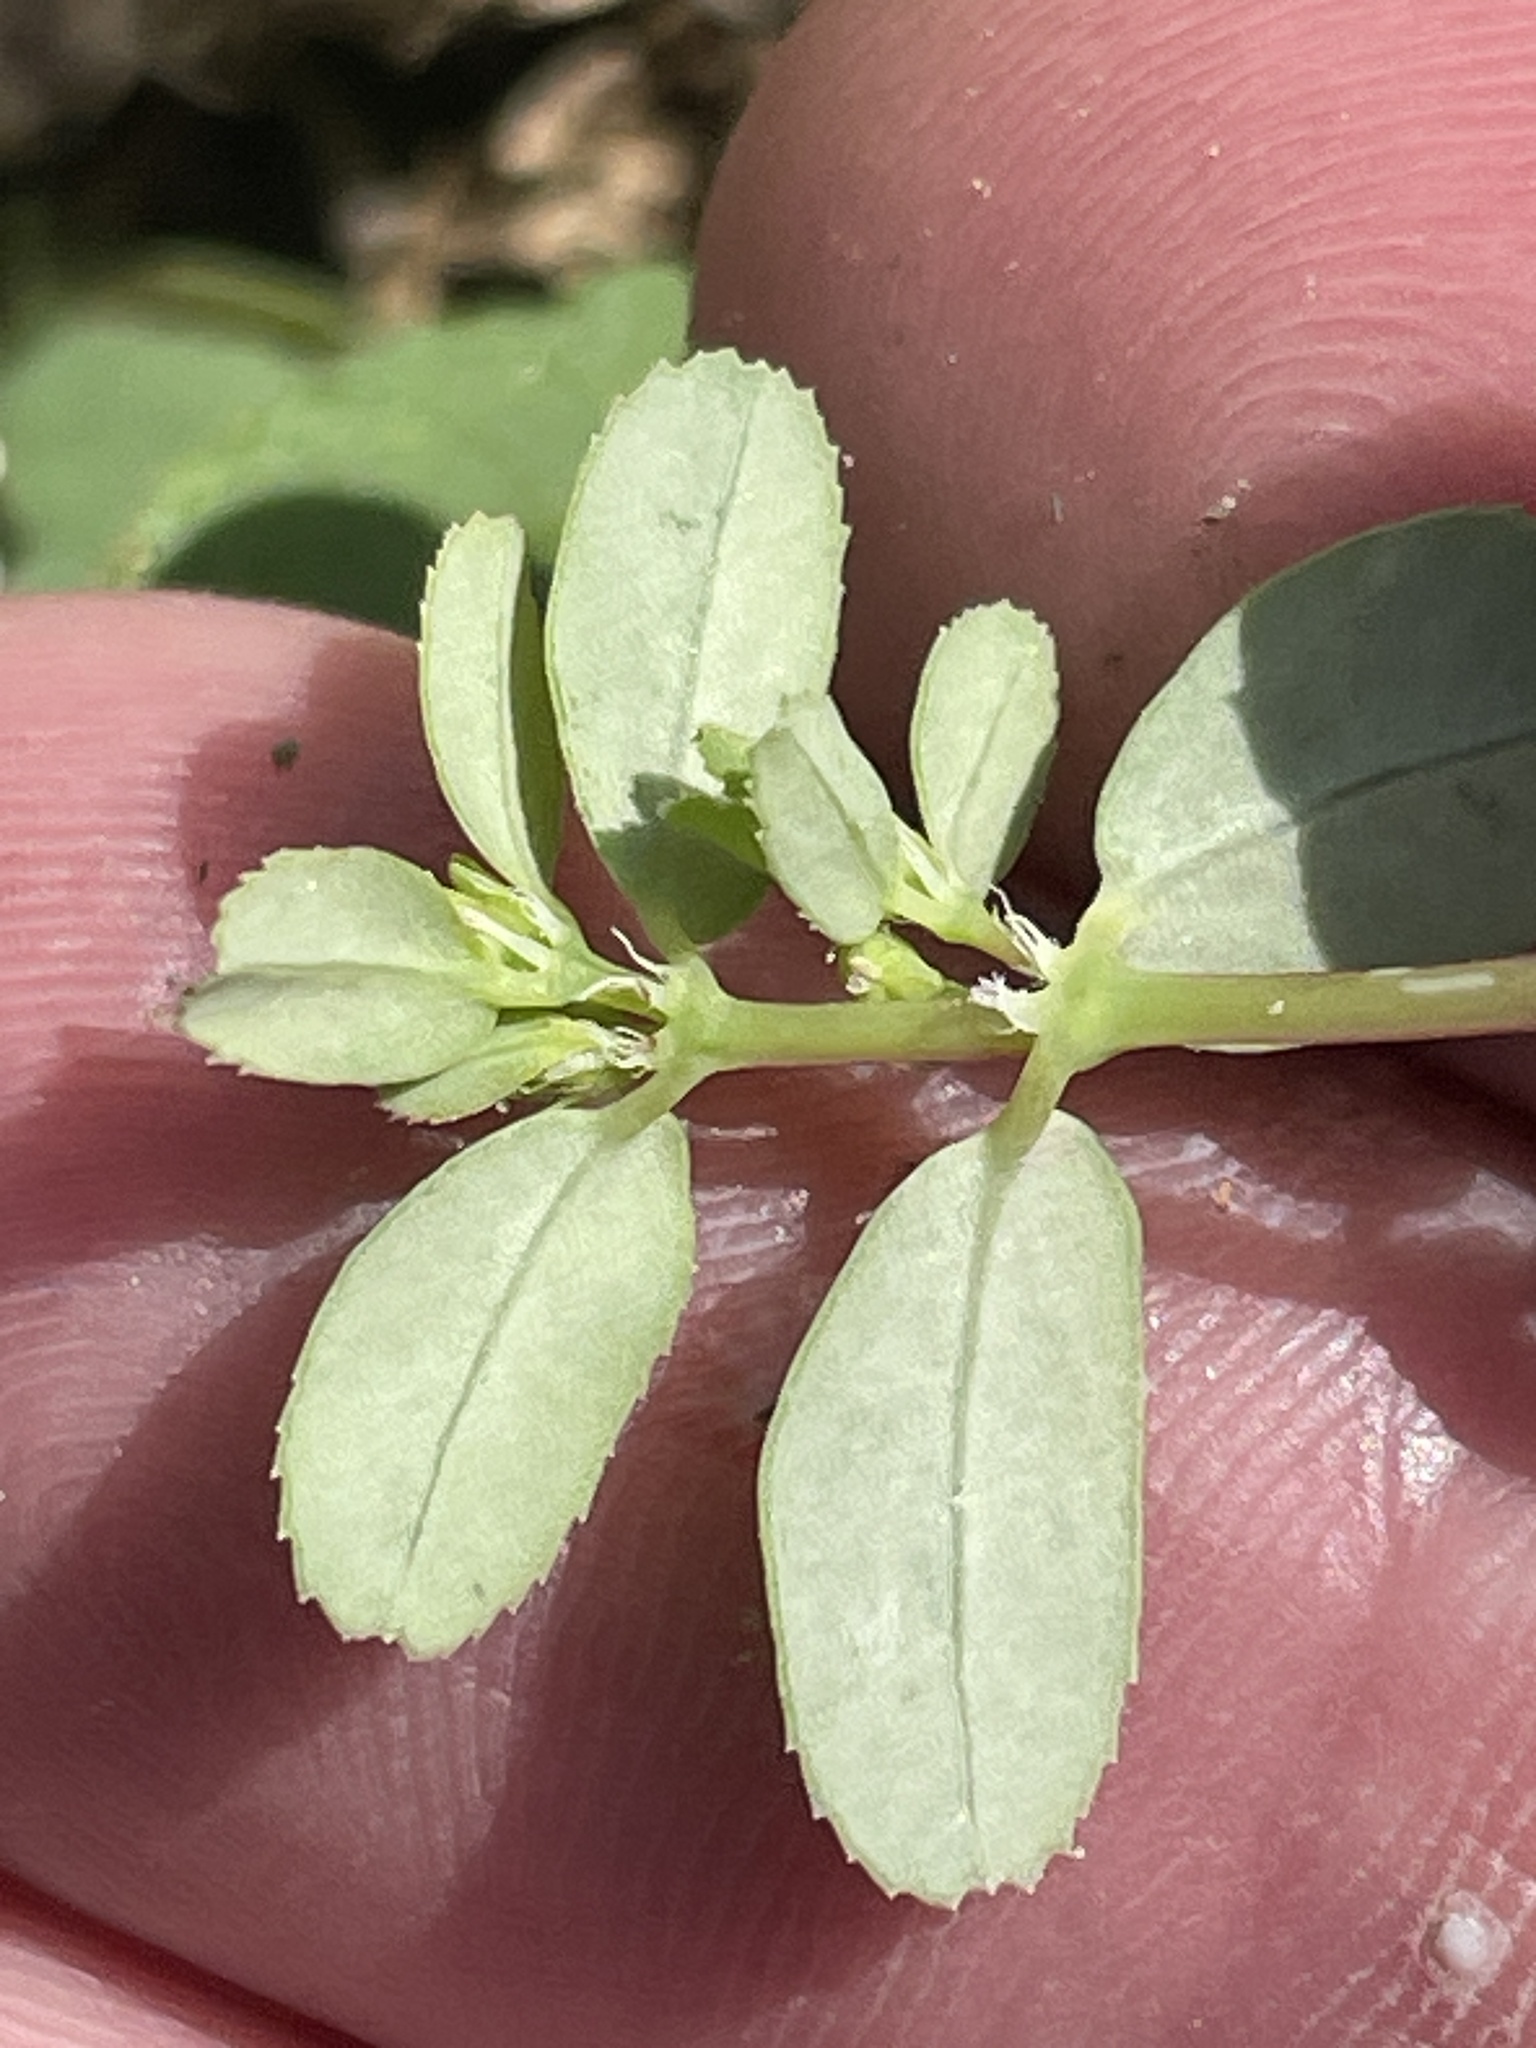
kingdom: Plantae
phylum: Tracheophyta
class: Magnoliopsida
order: Malpighiales
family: Euphorbiaceae
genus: Euphorbia
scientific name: Euphorbia serpillifolia
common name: Thyme-leaf spurge
